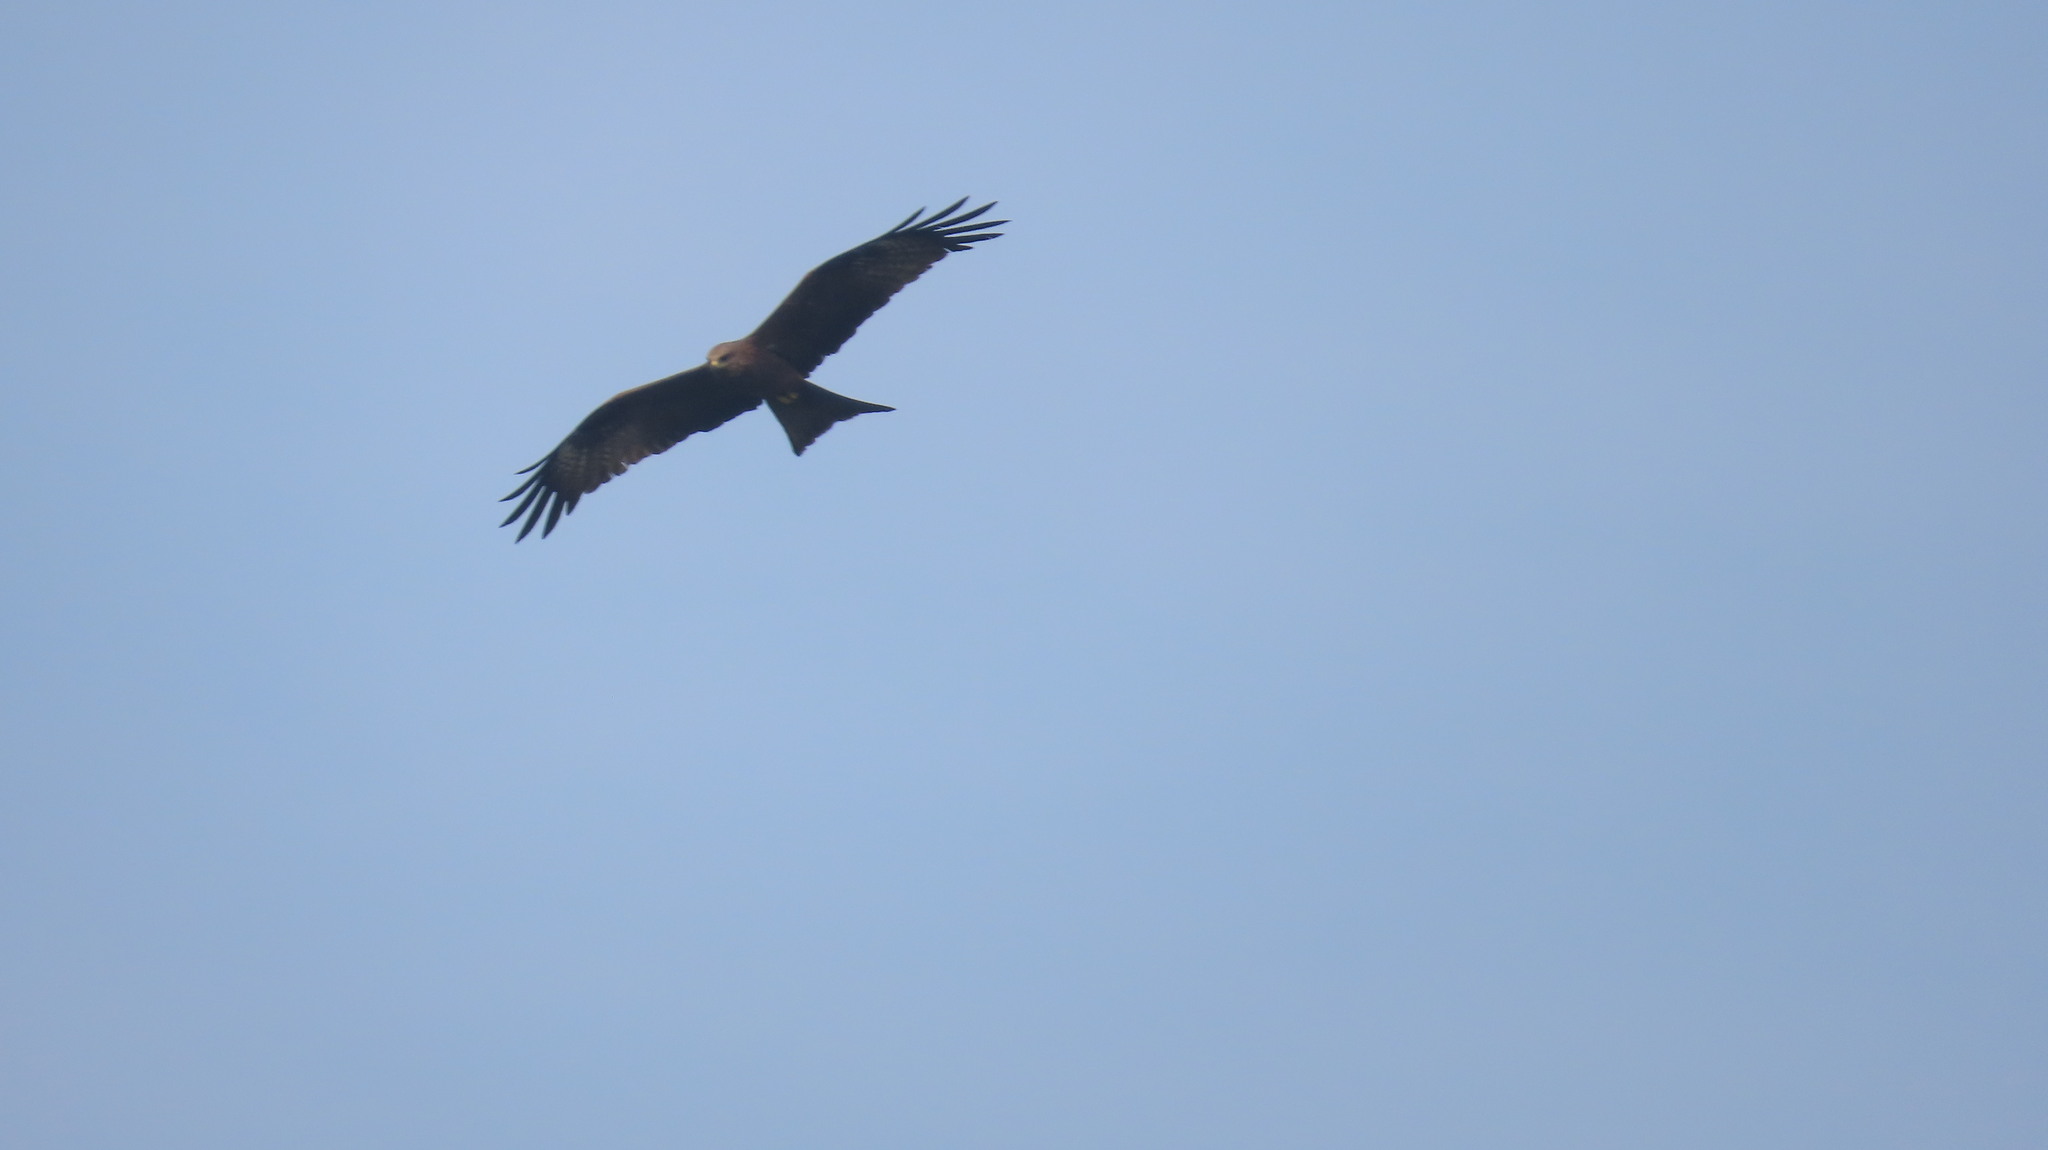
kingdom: Animalia
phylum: Chordata
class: Aves
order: Accipitriformes
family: Accipitridae
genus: Milvus
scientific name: Milvus migrans
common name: Black kite
